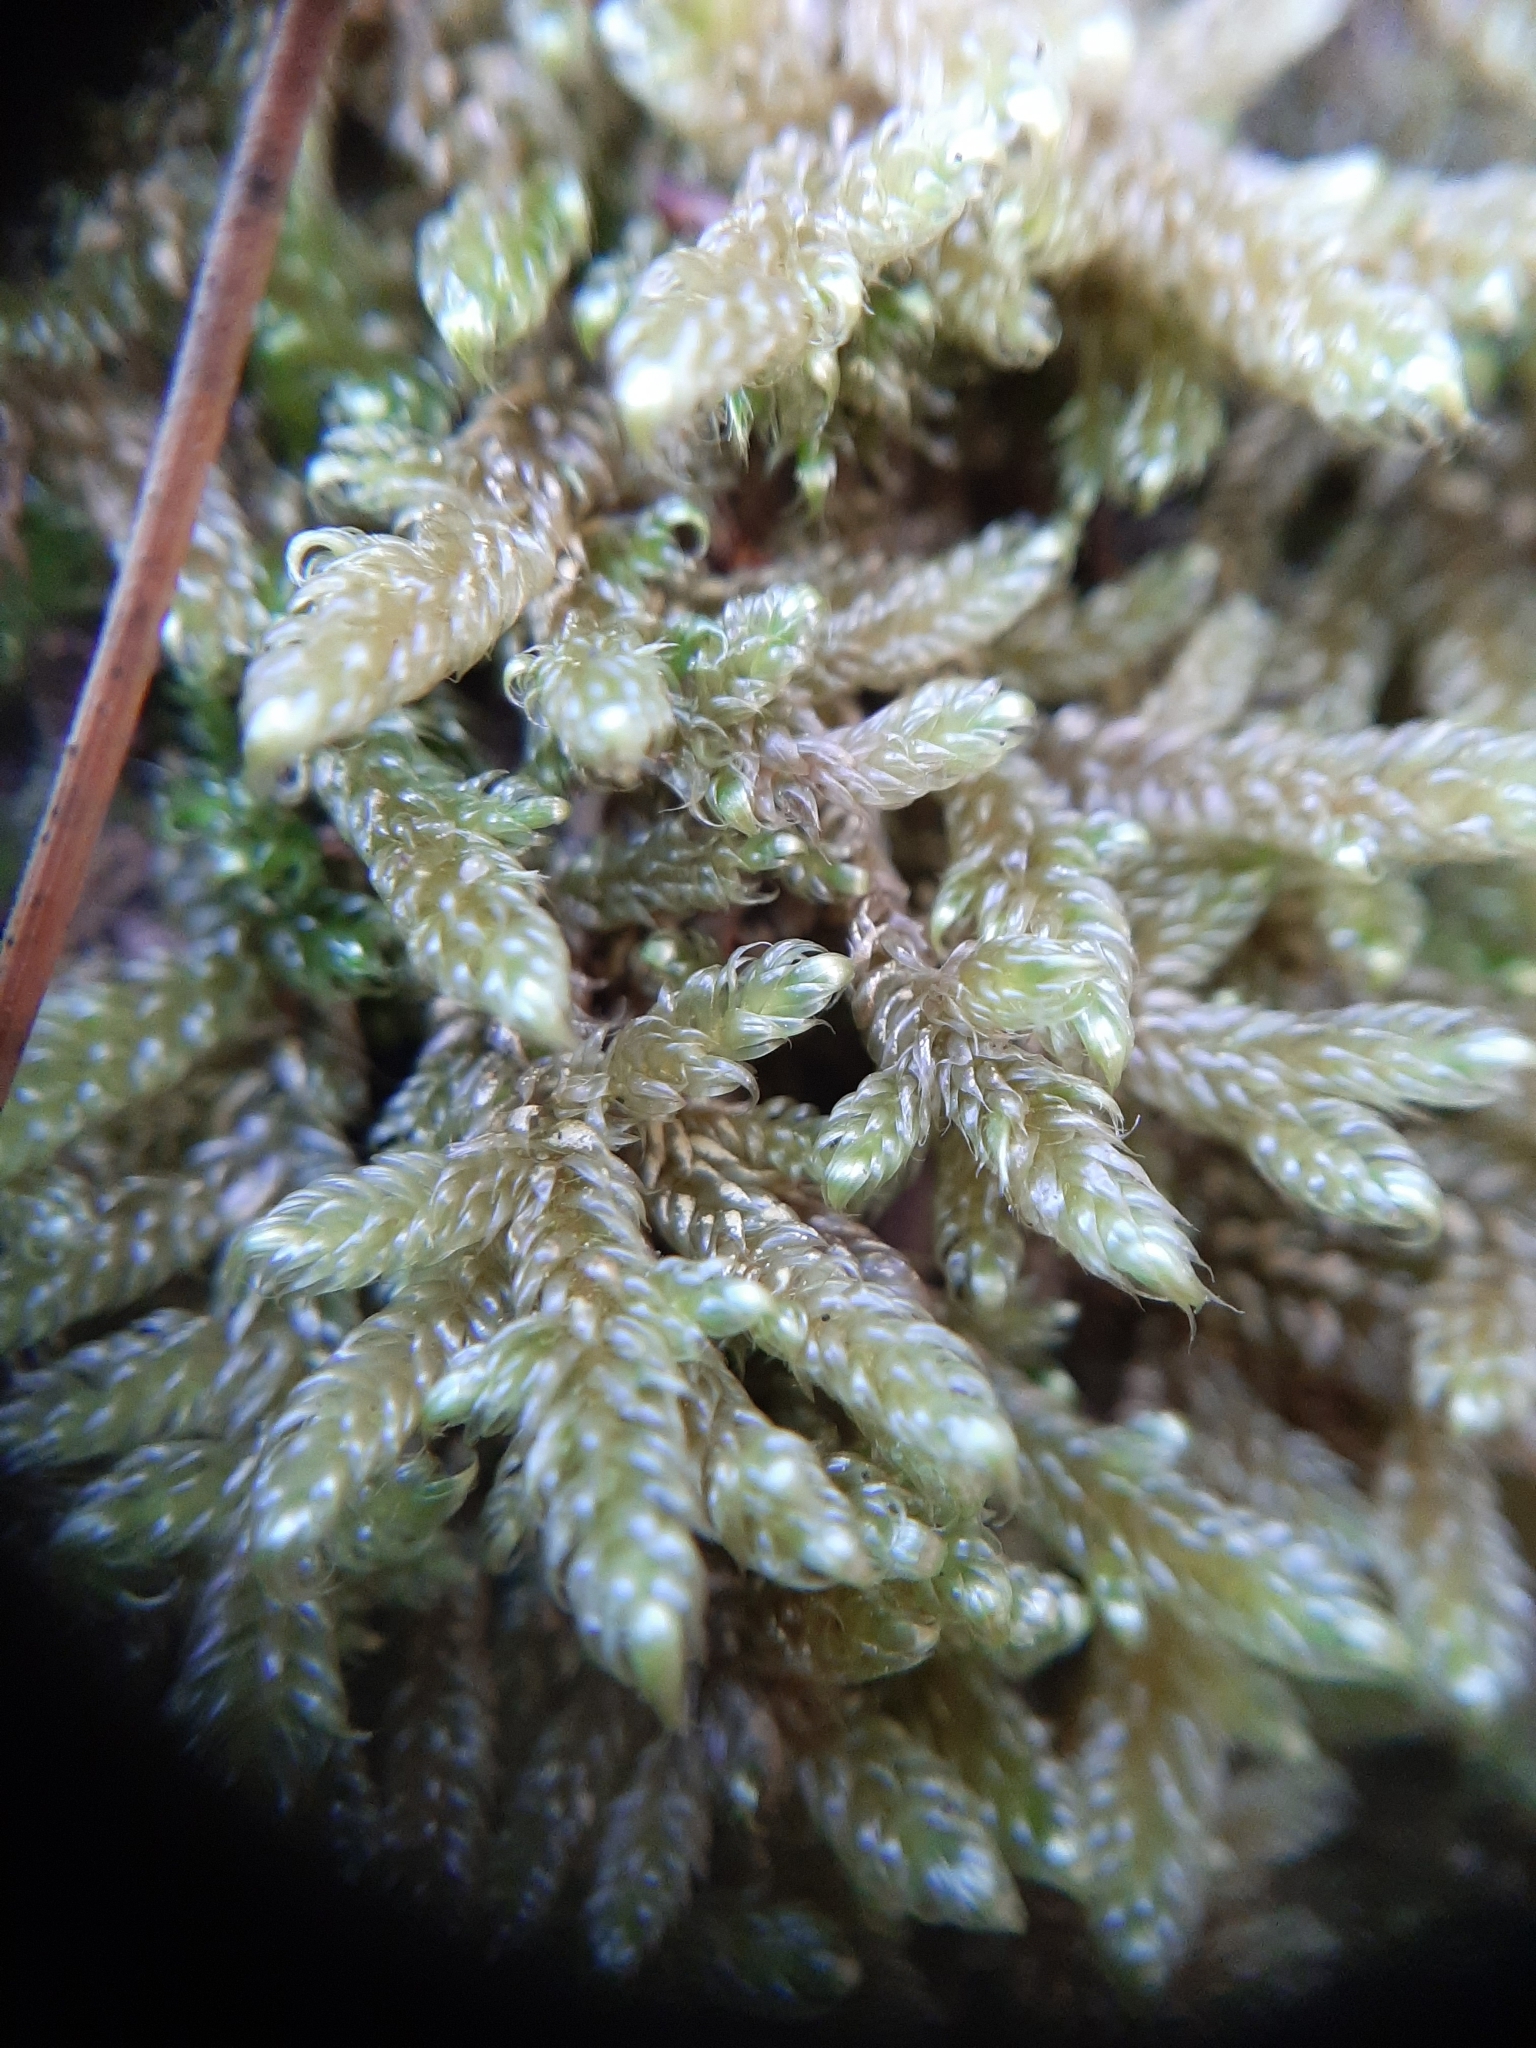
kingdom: Plantae
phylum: Bryophyta
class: Bryopsida
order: Hypnales
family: Hypnaceae
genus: Hypnum
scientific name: Hypnum cupressiforme
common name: Cypress-leaved plait-moss
